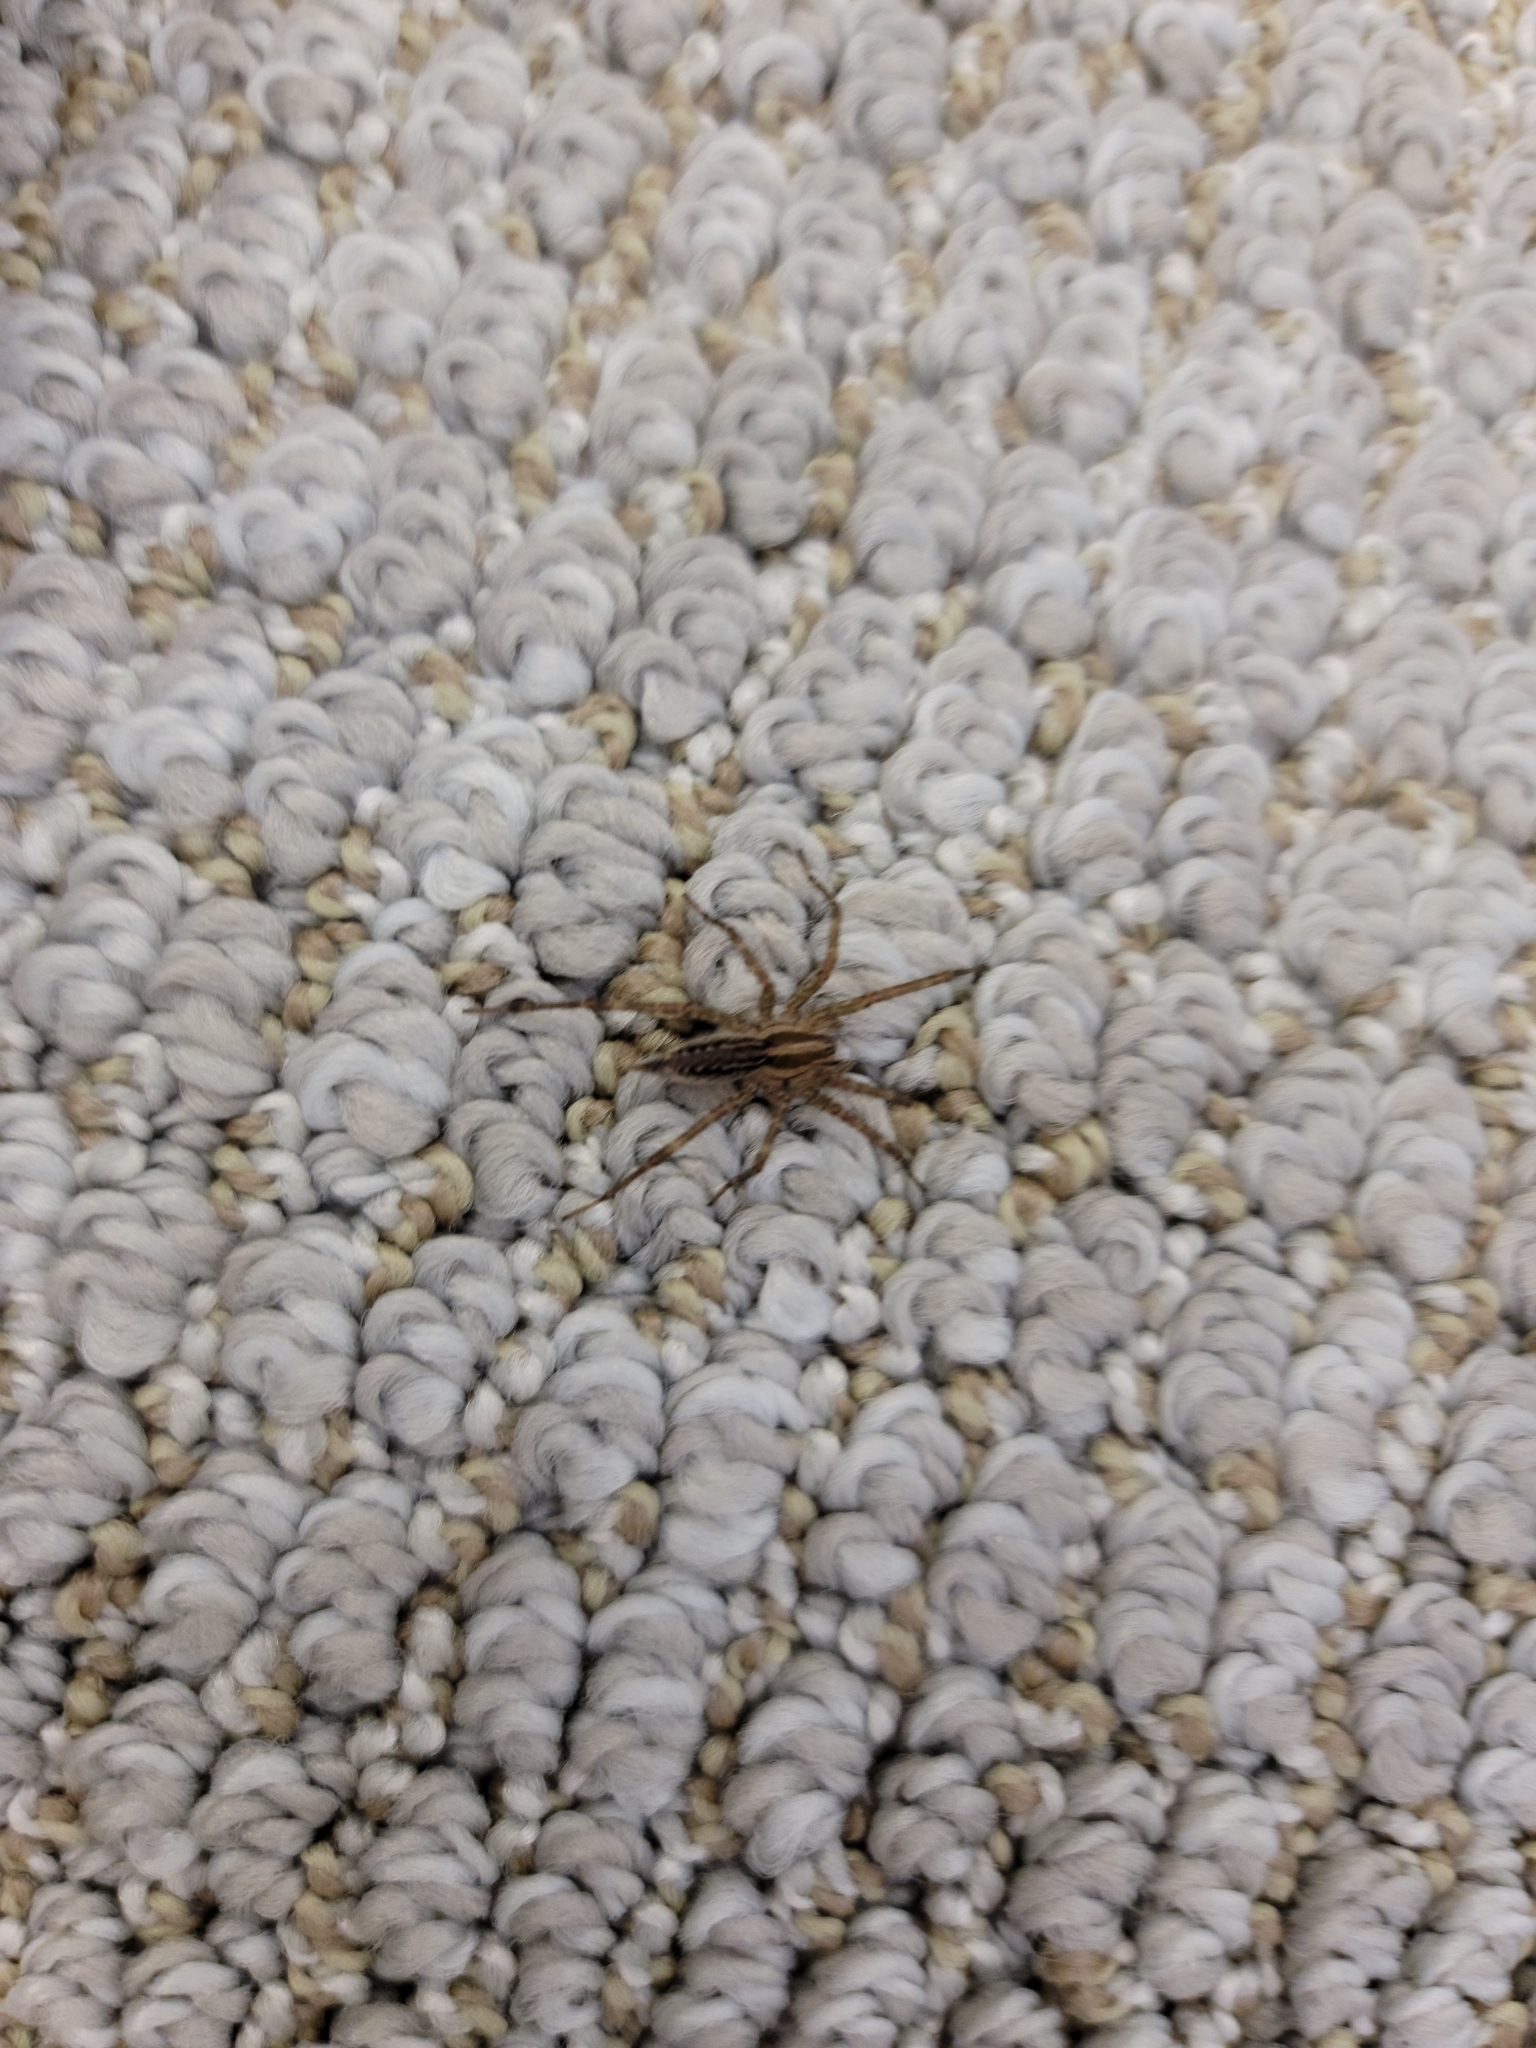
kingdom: Animalia
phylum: Arthropoda
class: Arachnida
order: Araneae
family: Agelenidae
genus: Agelenopsis
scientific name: Agelenopsis
